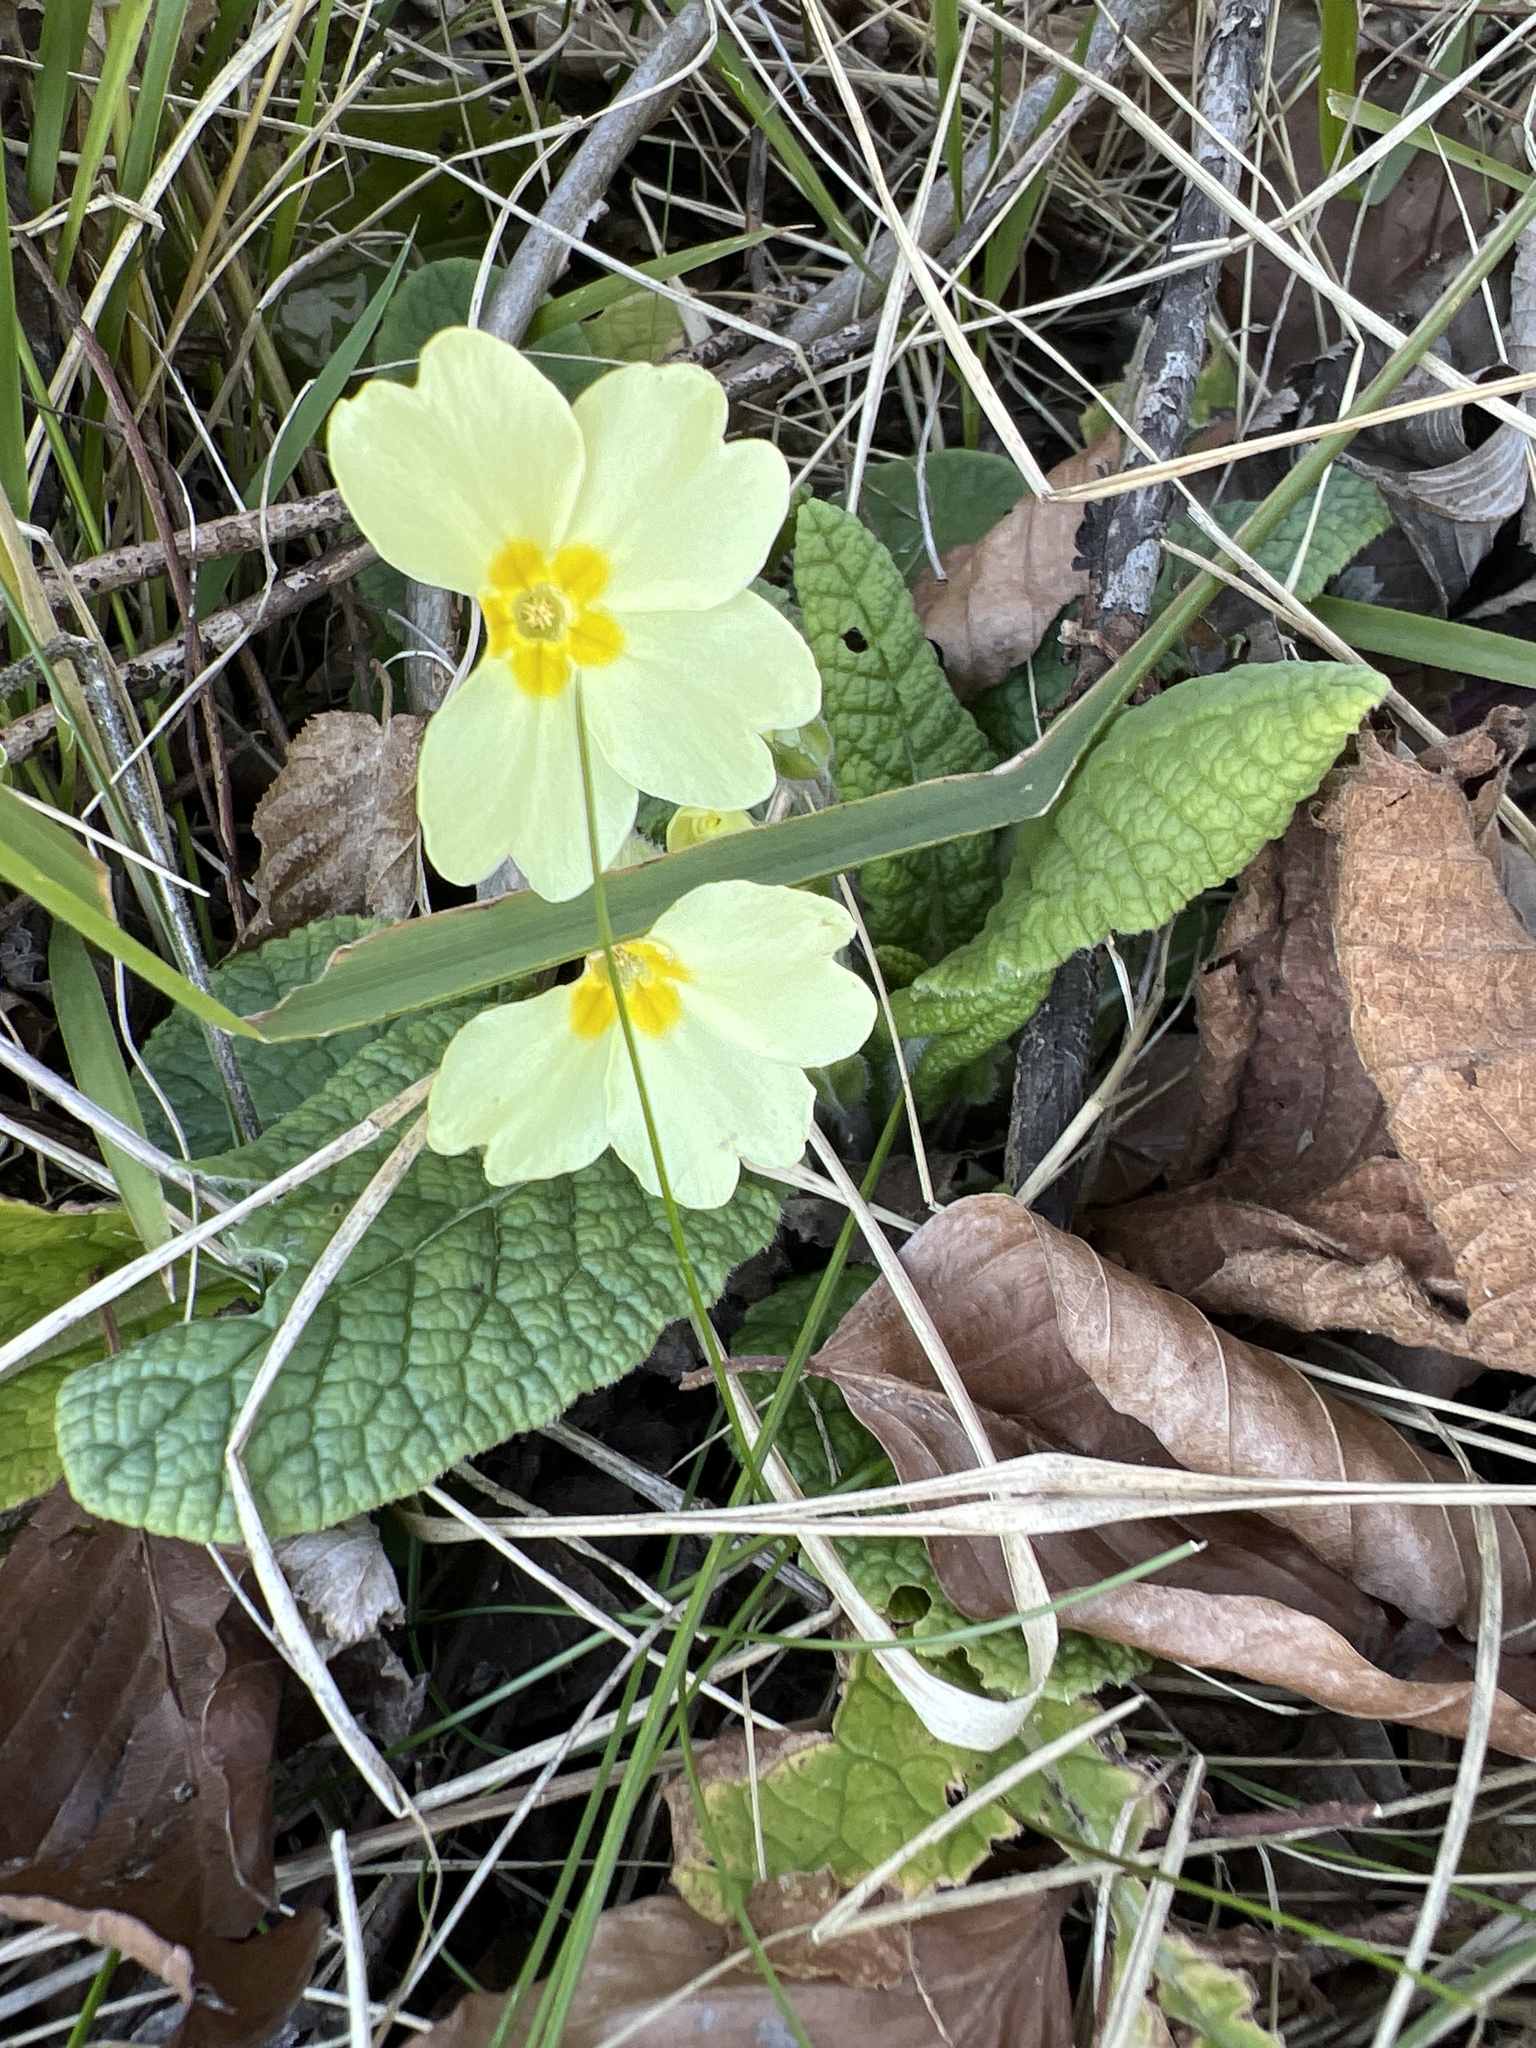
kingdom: Plantae
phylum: Tracheophyta
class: Magnoliopsida
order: Ericales
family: Primulaceae
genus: Primula
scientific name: Primula vulgaris
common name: Primrose
